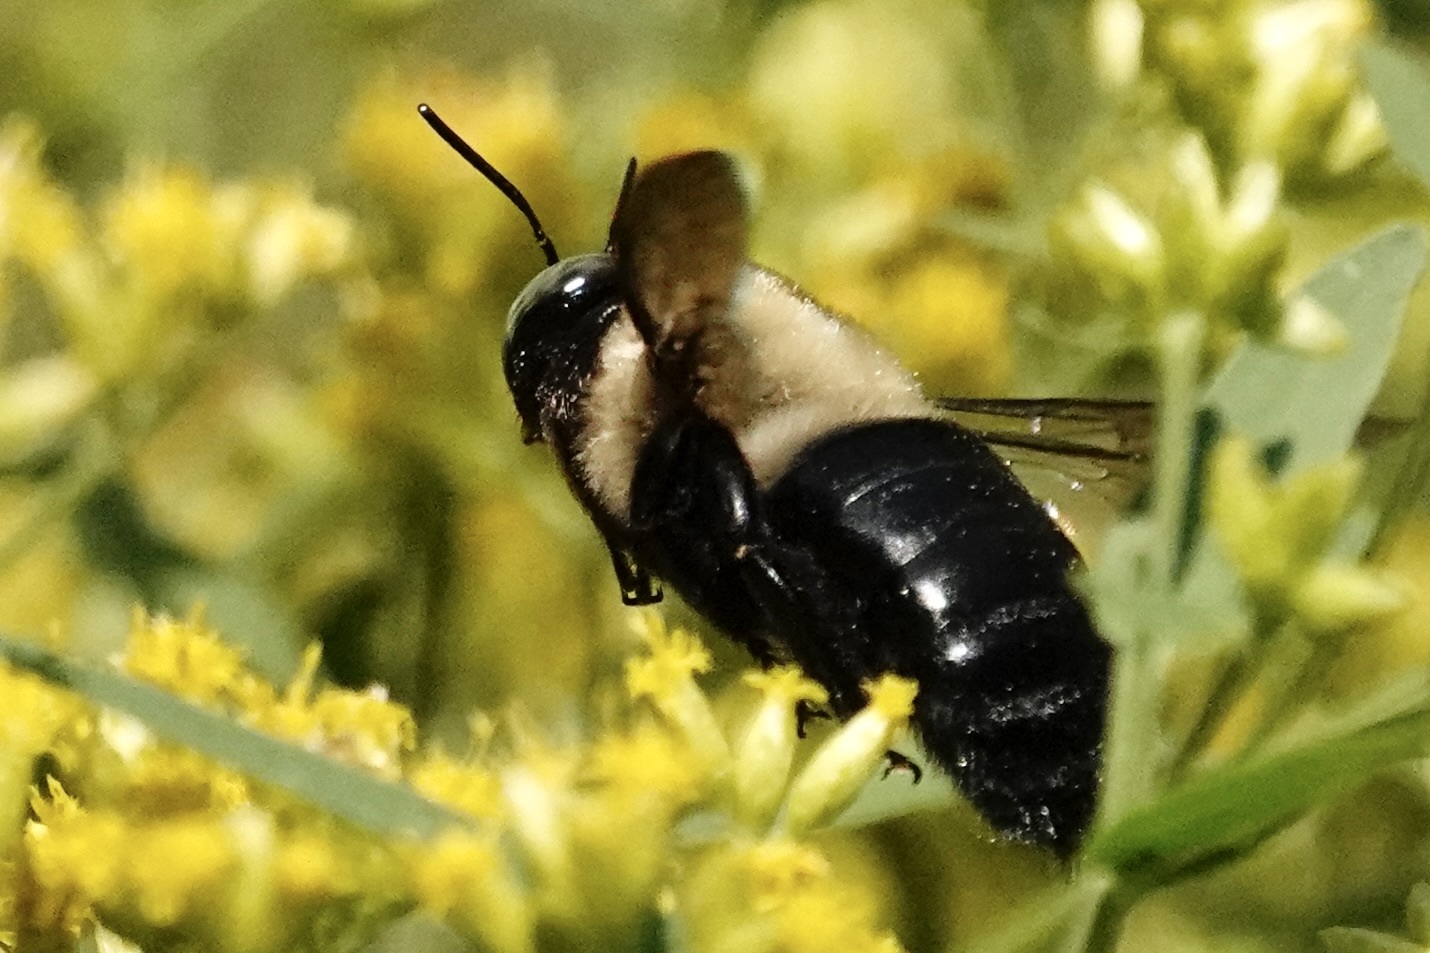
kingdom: Animalia
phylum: Arthropoda
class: Insecta
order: Hymenoptera
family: Apidae
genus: Xylocopa
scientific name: Xylocopa virginica
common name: Carpenter bee
